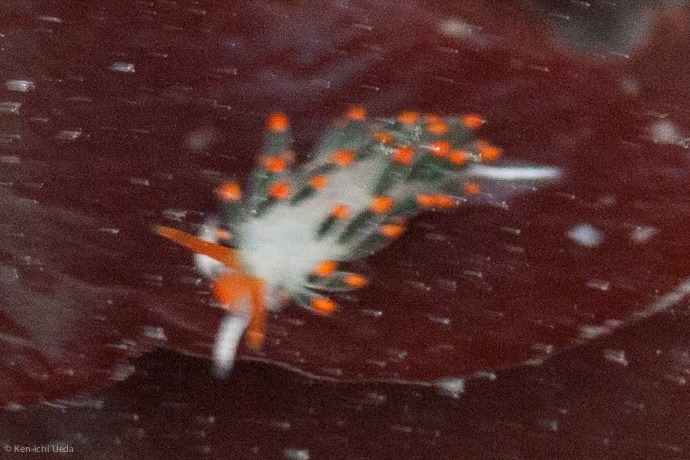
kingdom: Animalia
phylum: Mollusca
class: Gastropoda
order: Nudibranchia
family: Trinchesiidae
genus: Diaphoreolis
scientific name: Diaphoreolis lagunae
